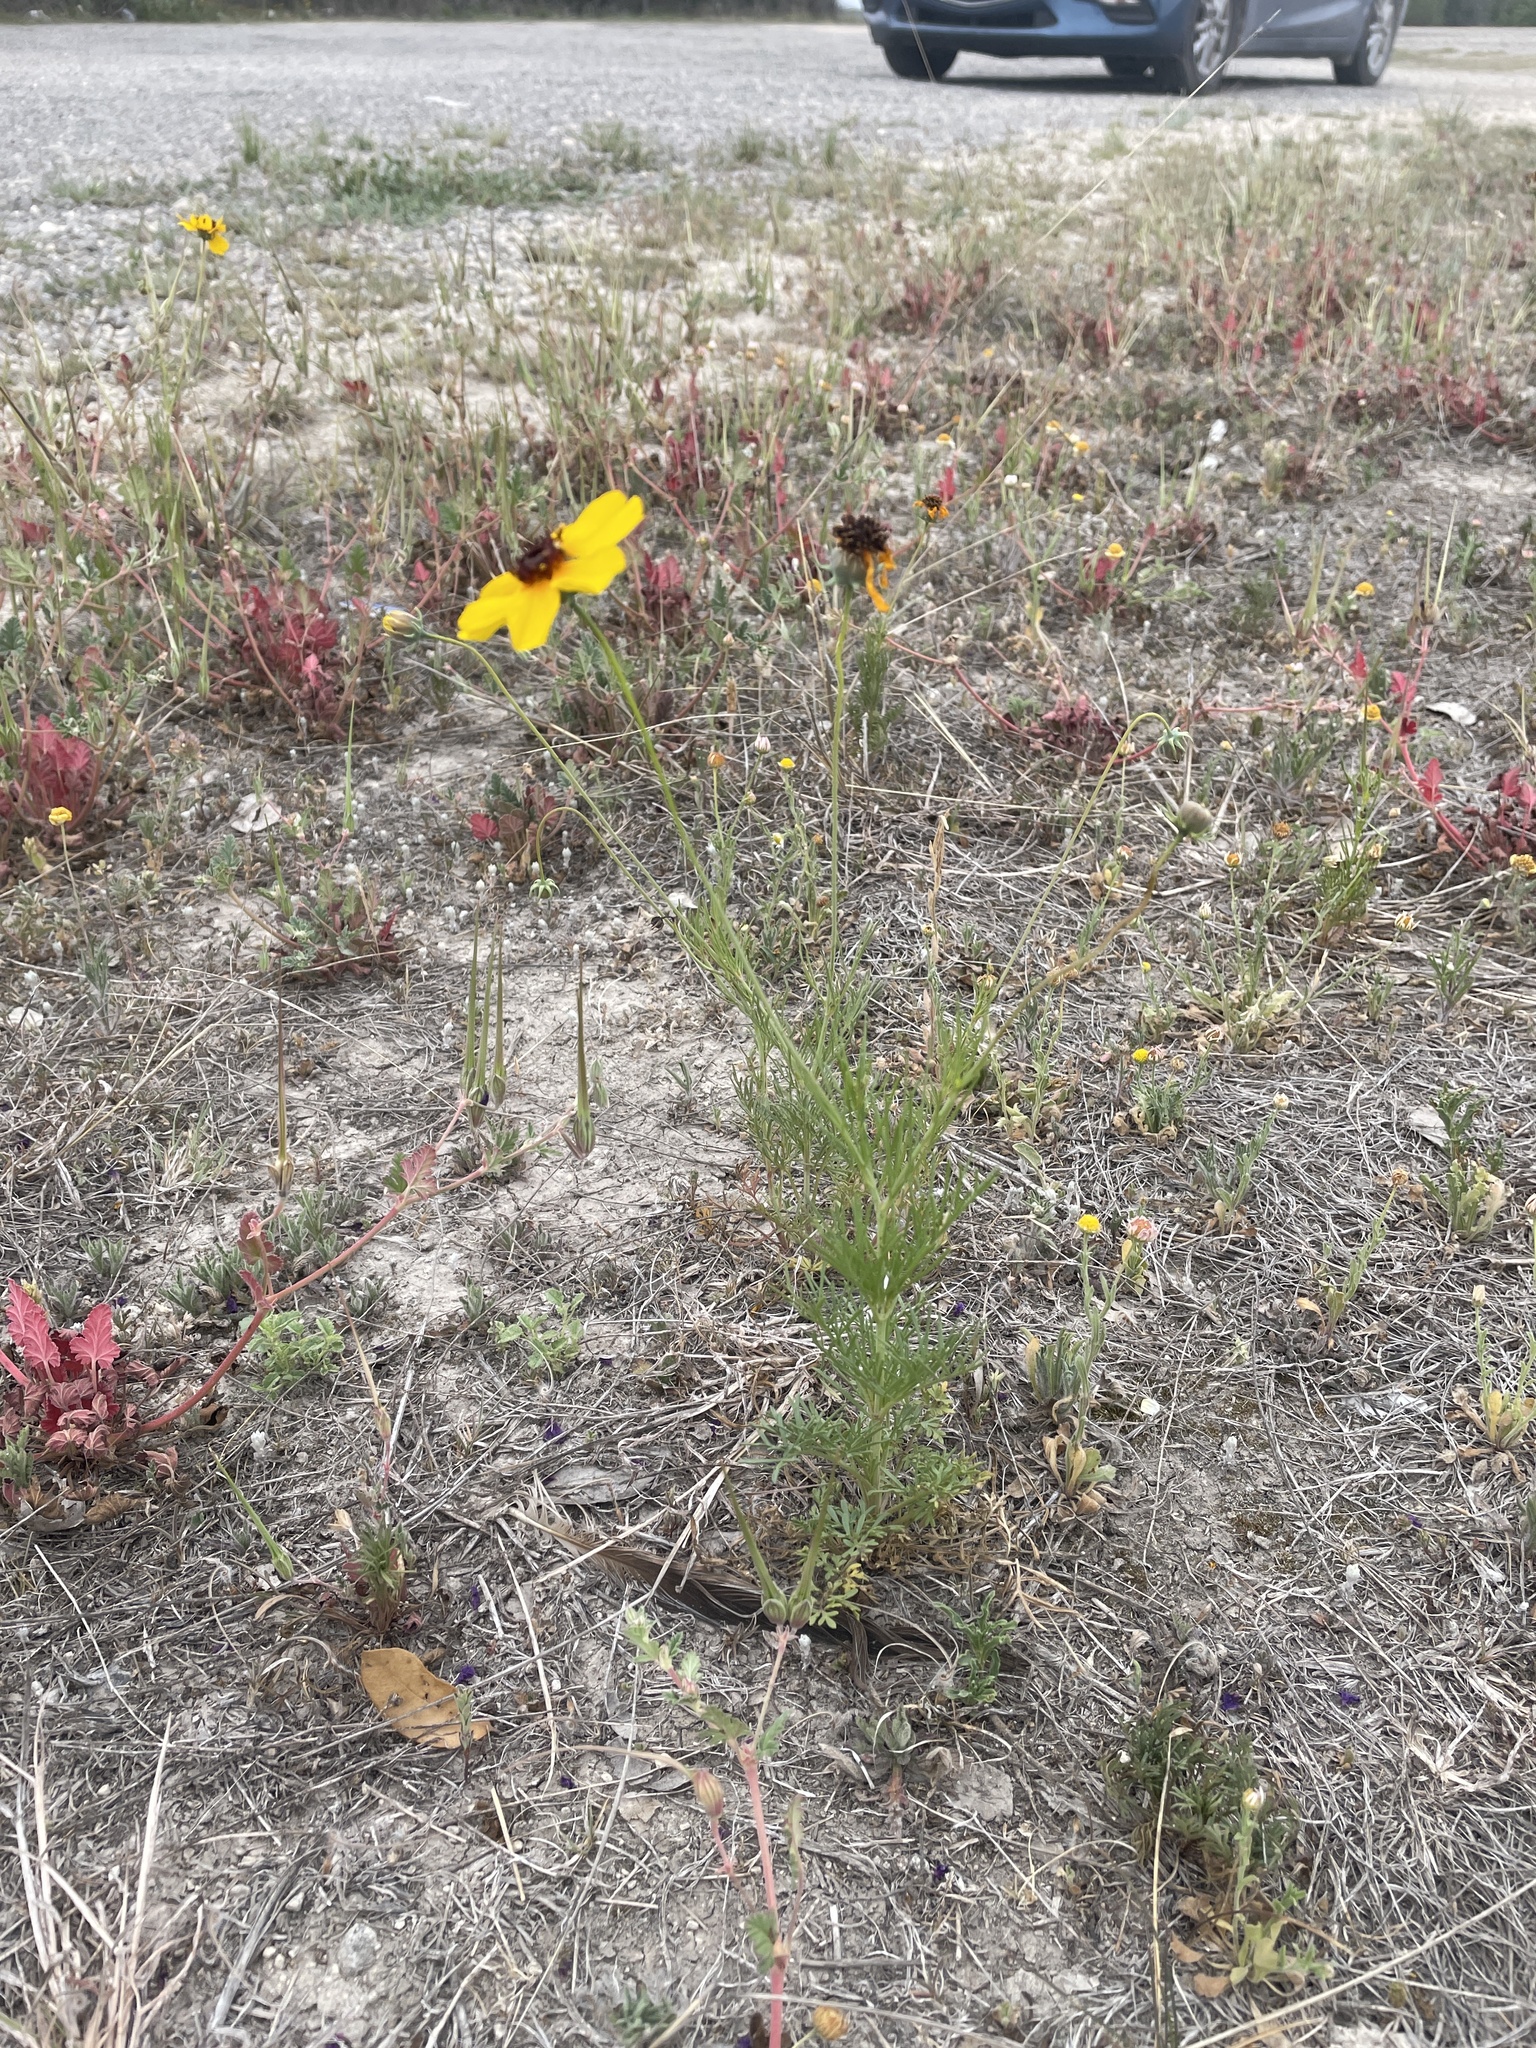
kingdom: Plantae
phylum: Tracheophyta
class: Magnoliopsida
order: Asterales
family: Asteraceae
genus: Thelesperma
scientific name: Thelesperma filifolium
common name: Stiff greenthread
